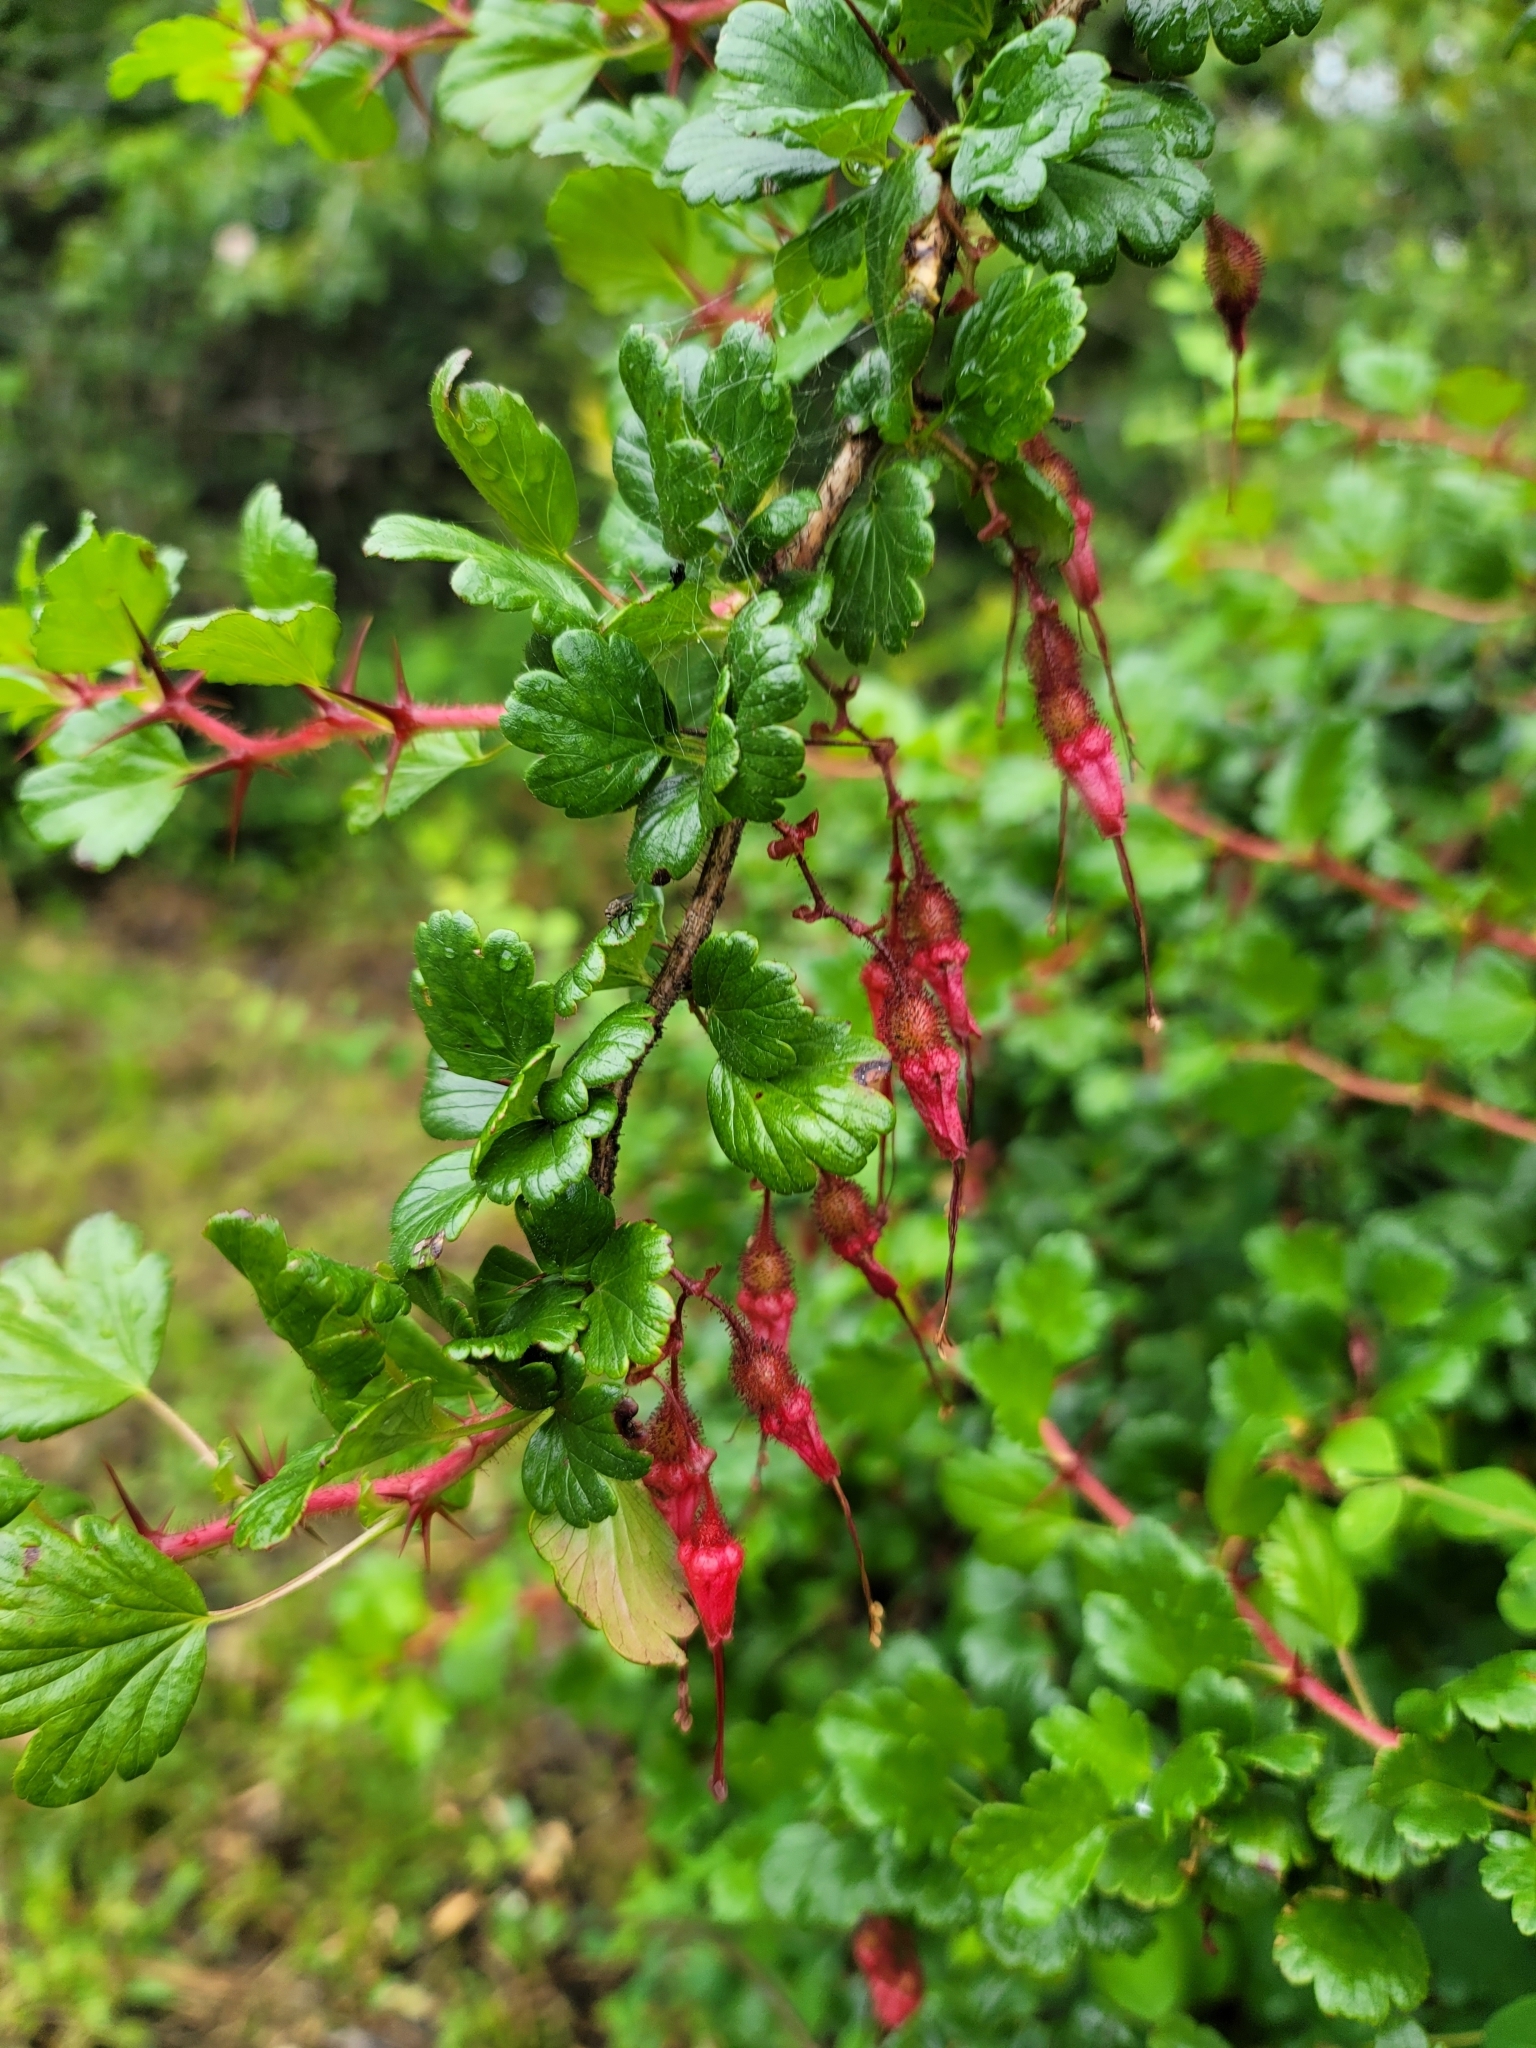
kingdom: Plantae
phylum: Tracheophyta
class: Magnoliopsida
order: Saxifragales
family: Grossulariaceae
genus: Ribes
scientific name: Ribes speciosum
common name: Fuchsia-flower gooseberry
